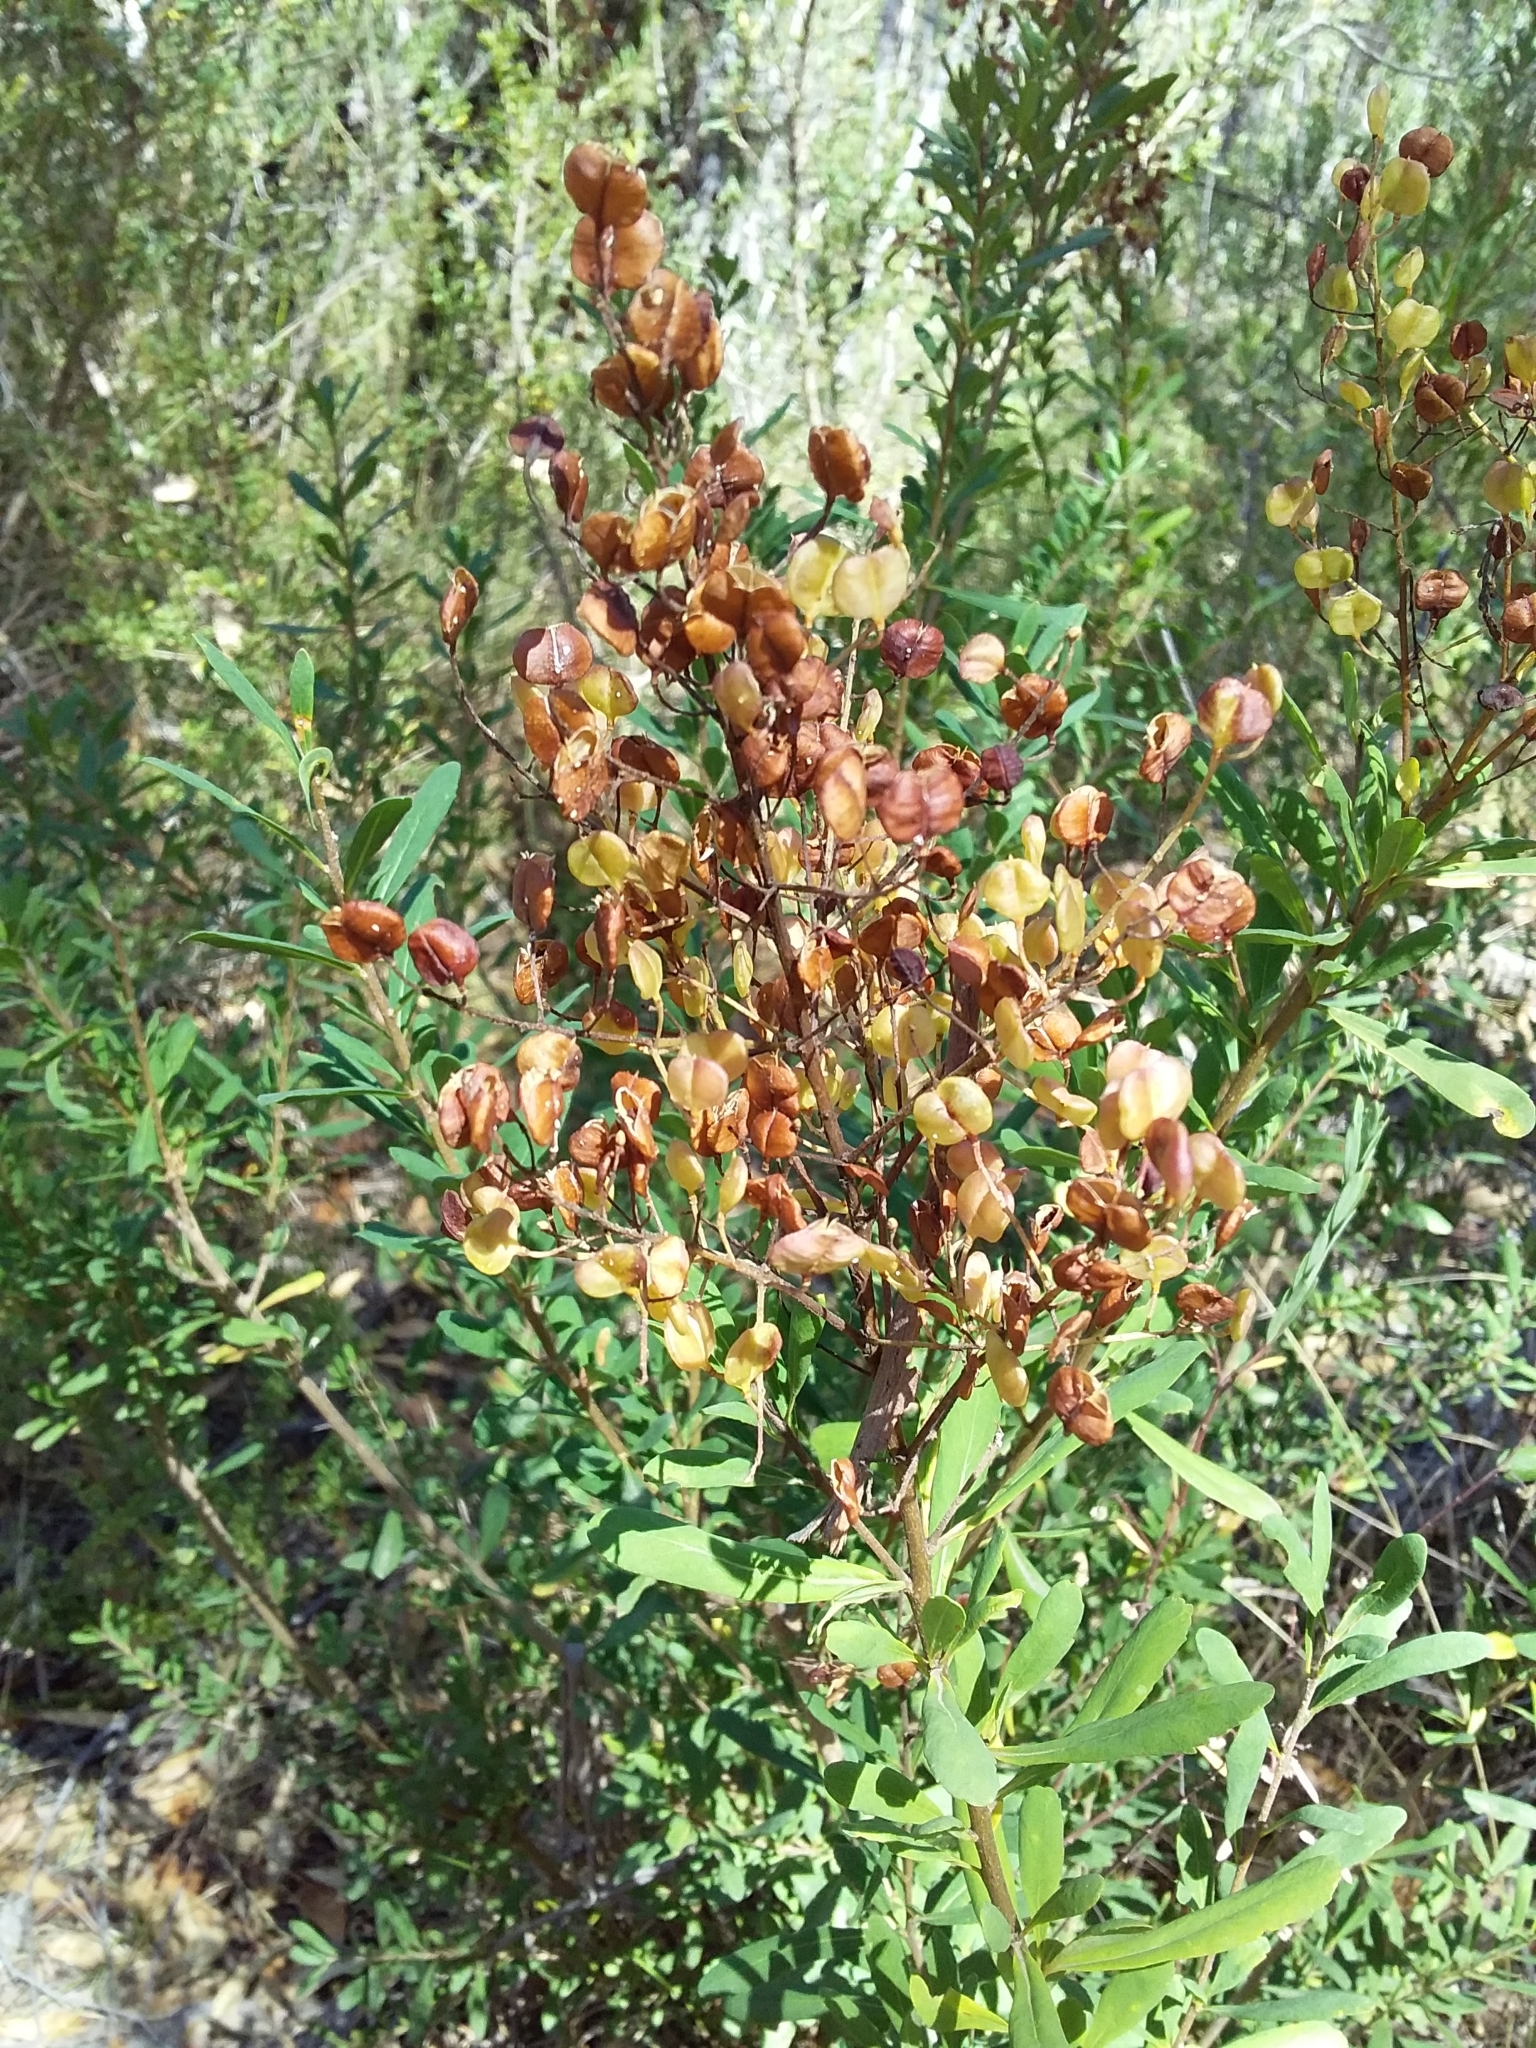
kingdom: Plantae
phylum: Tracheophyta
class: Magnoliopsida
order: Apiales
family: Pittosporaceae
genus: Bursaria
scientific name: Bursaria spinosa
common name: Australian blackthorn
